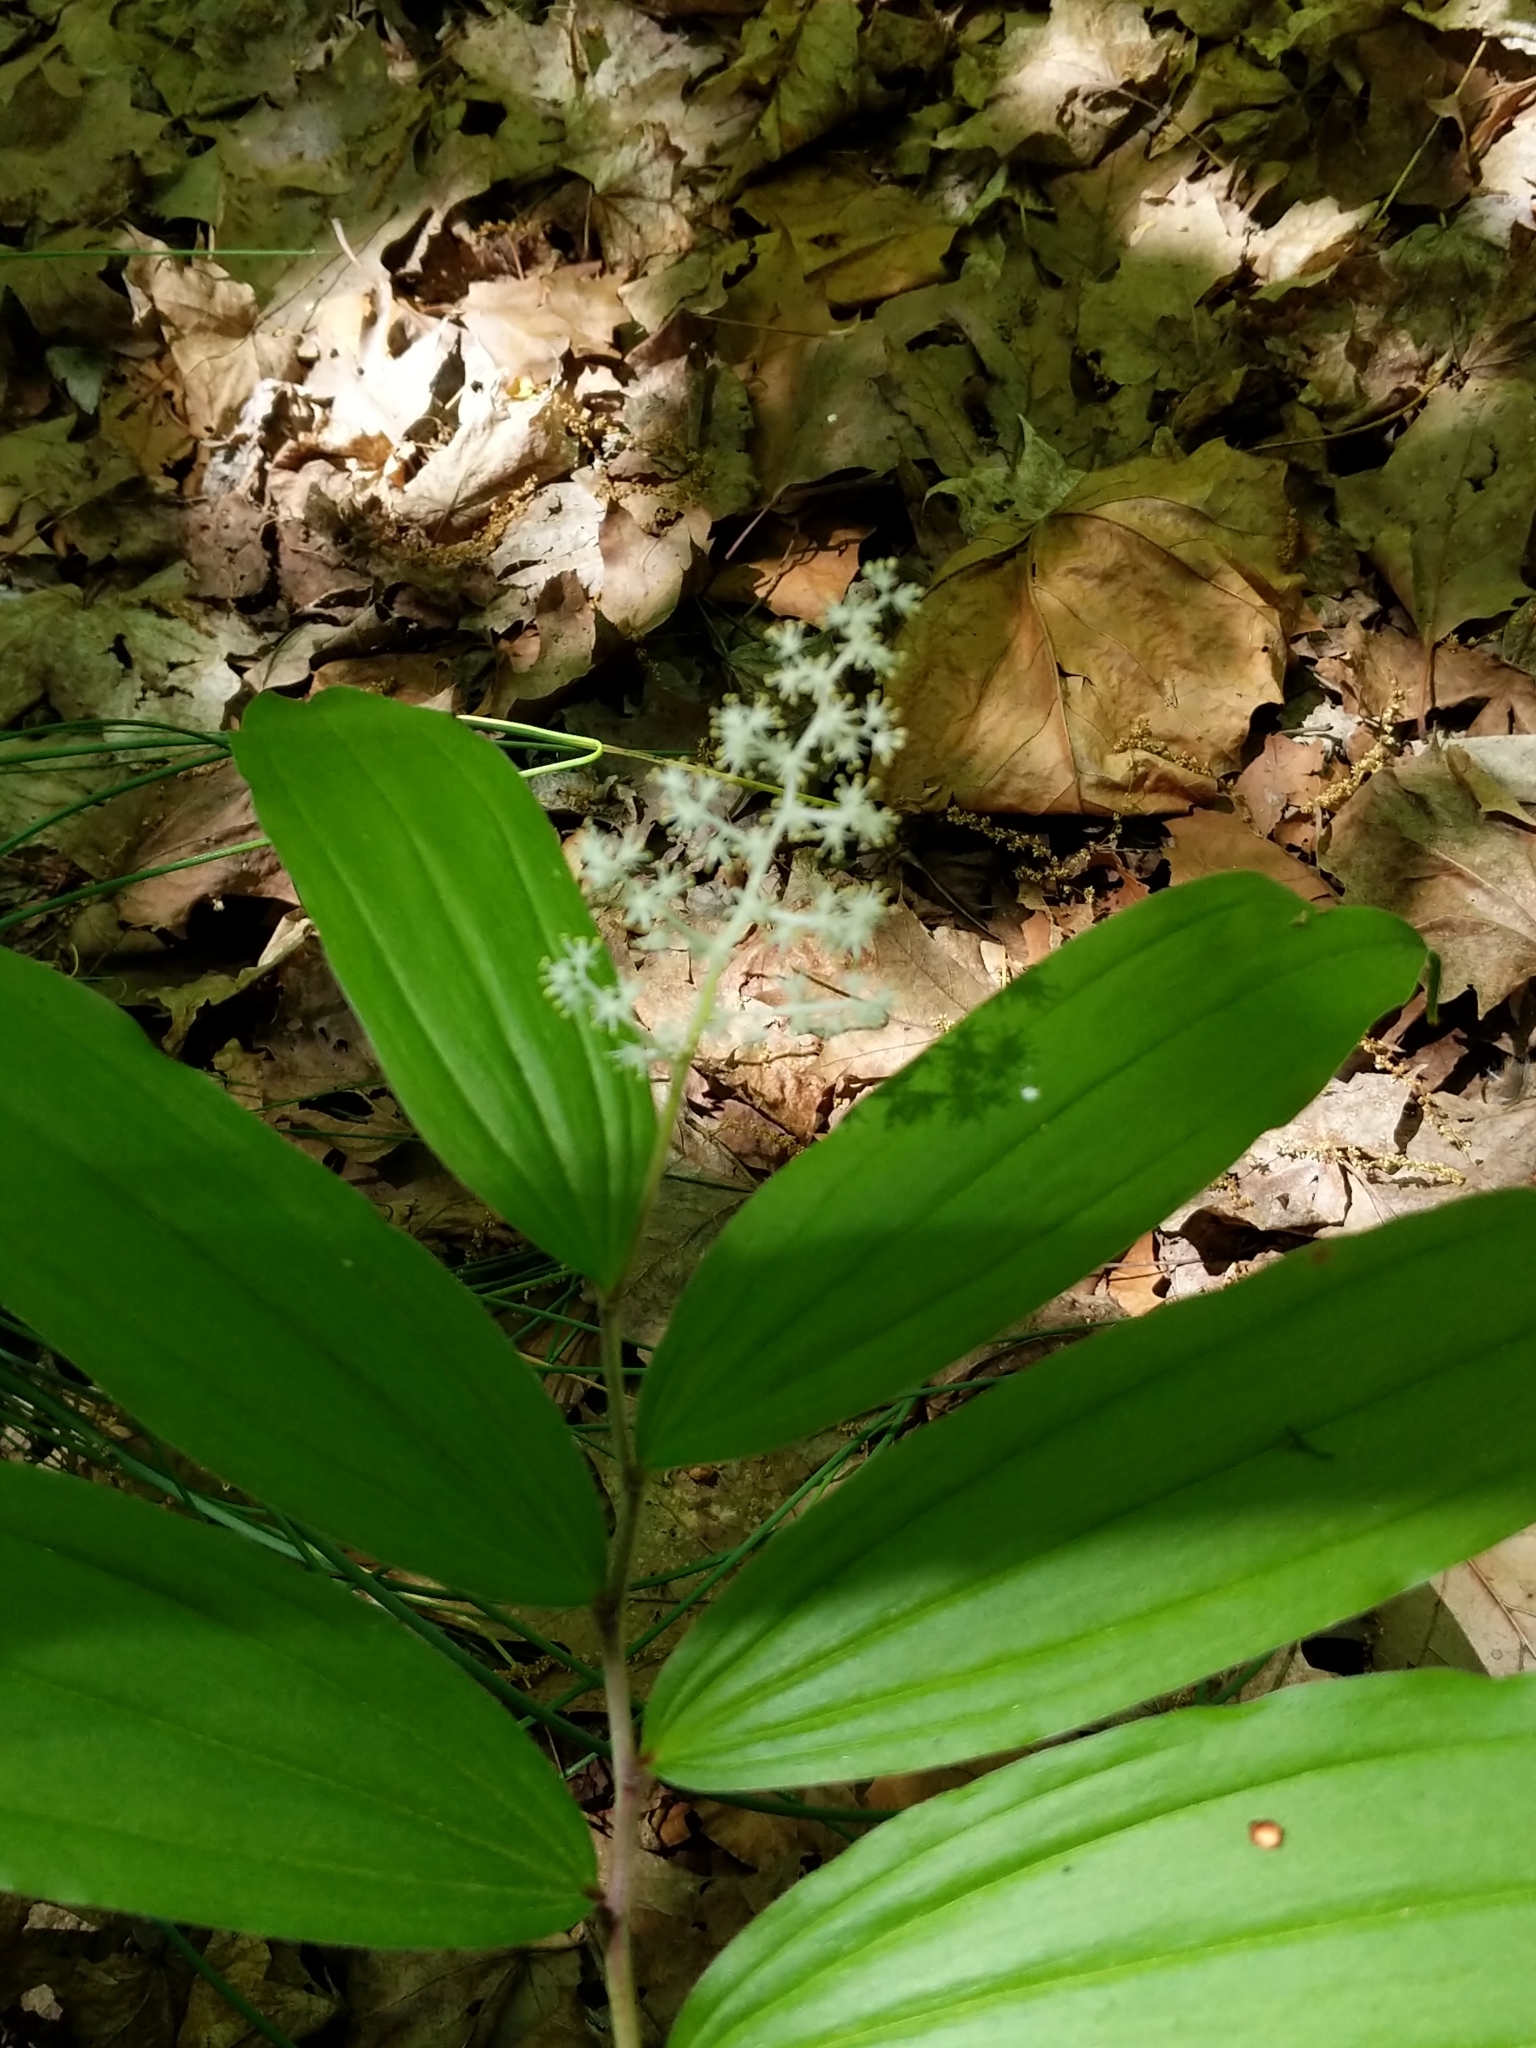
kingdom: Plantae
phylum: Tracheophyta
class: Liliopsida
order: Asparagales
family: Asparagaceae
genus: Maianthemum
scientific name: Maianthemum racemosum
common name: False spikenard
